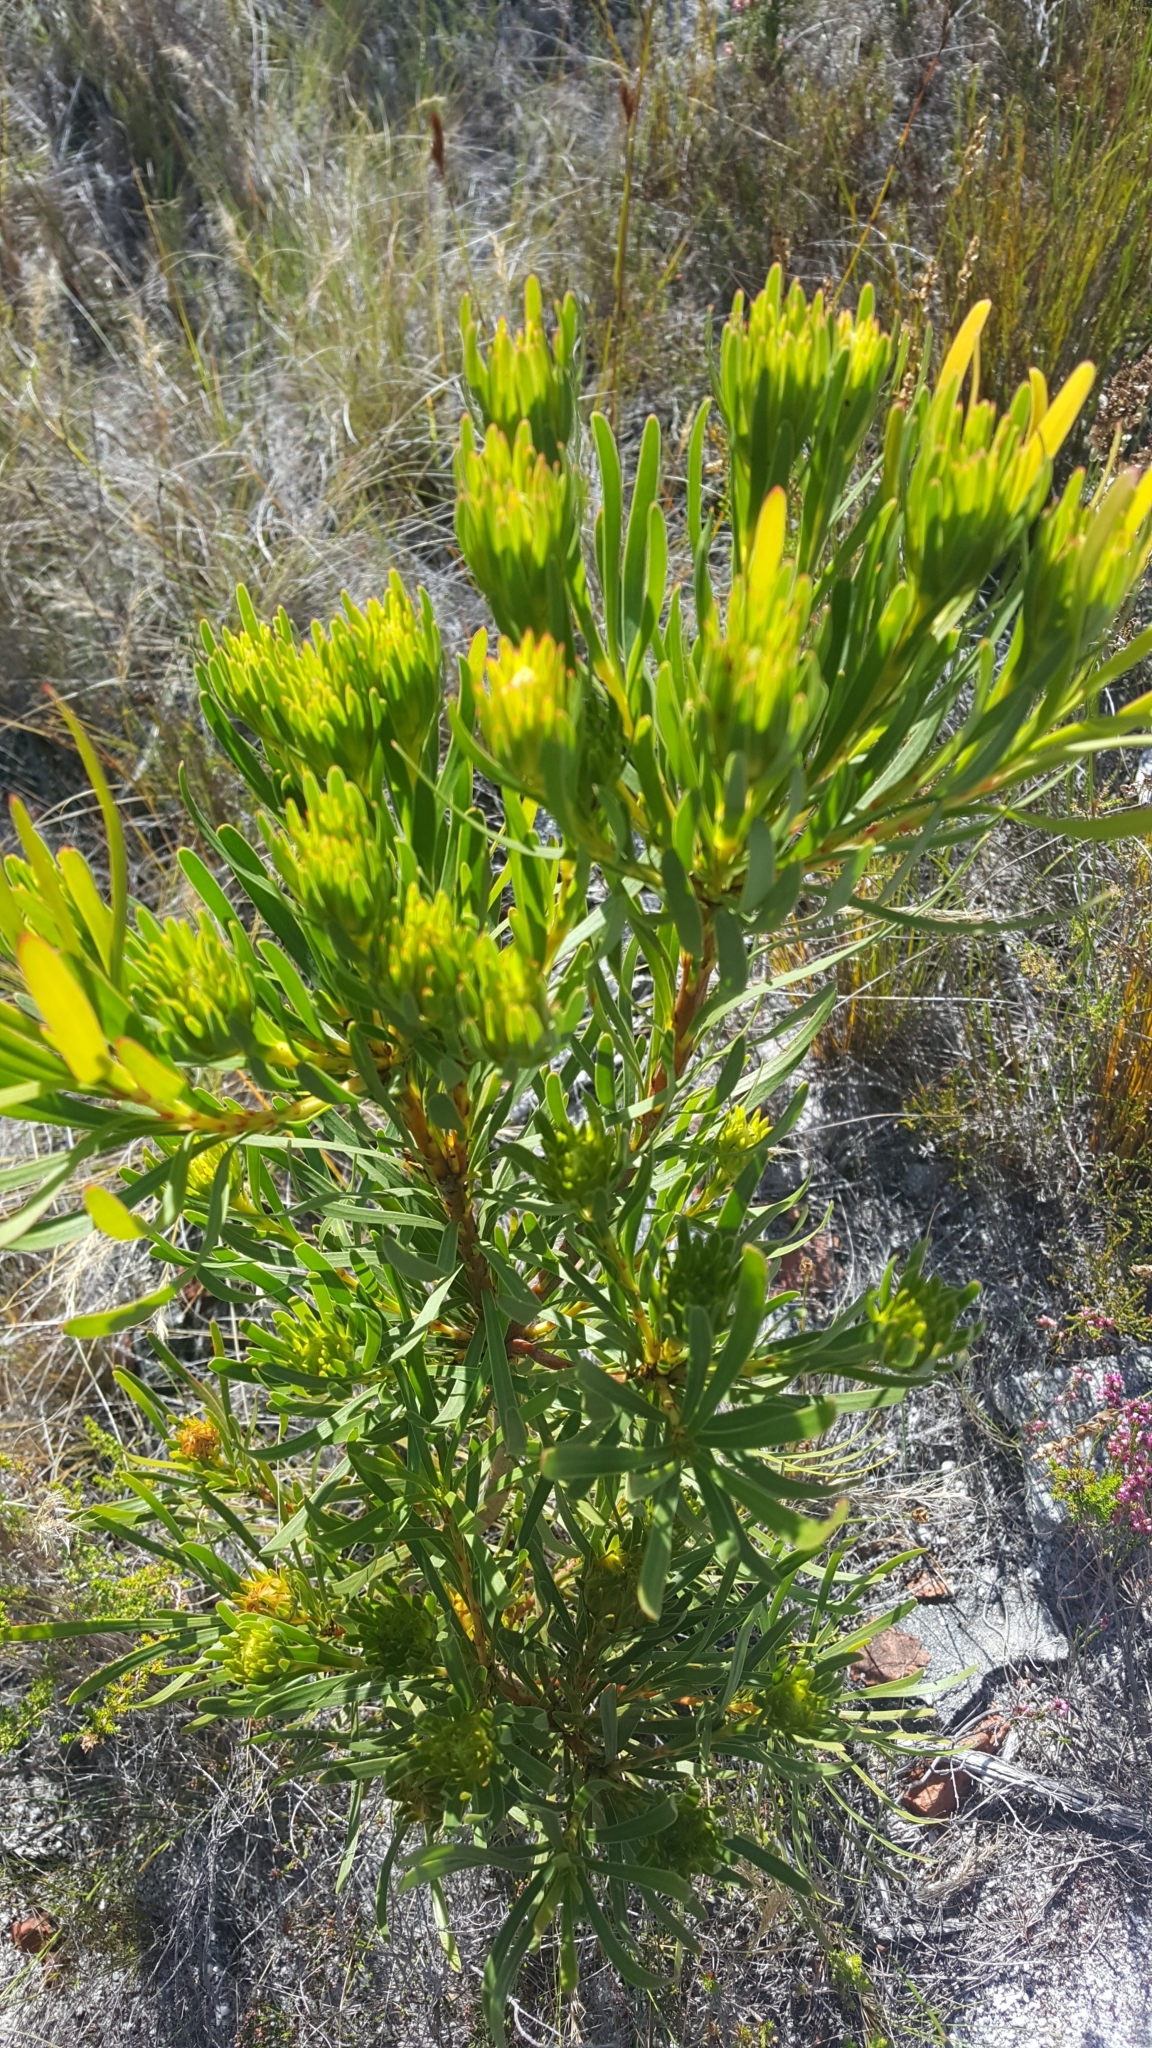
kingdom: Plantae
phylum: Tracheophyta
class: Magnoliopsida
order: Proteales
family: Proteaceae
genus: Aulax
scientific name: Aulax umbellata
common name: Broad-leaf featherbush
